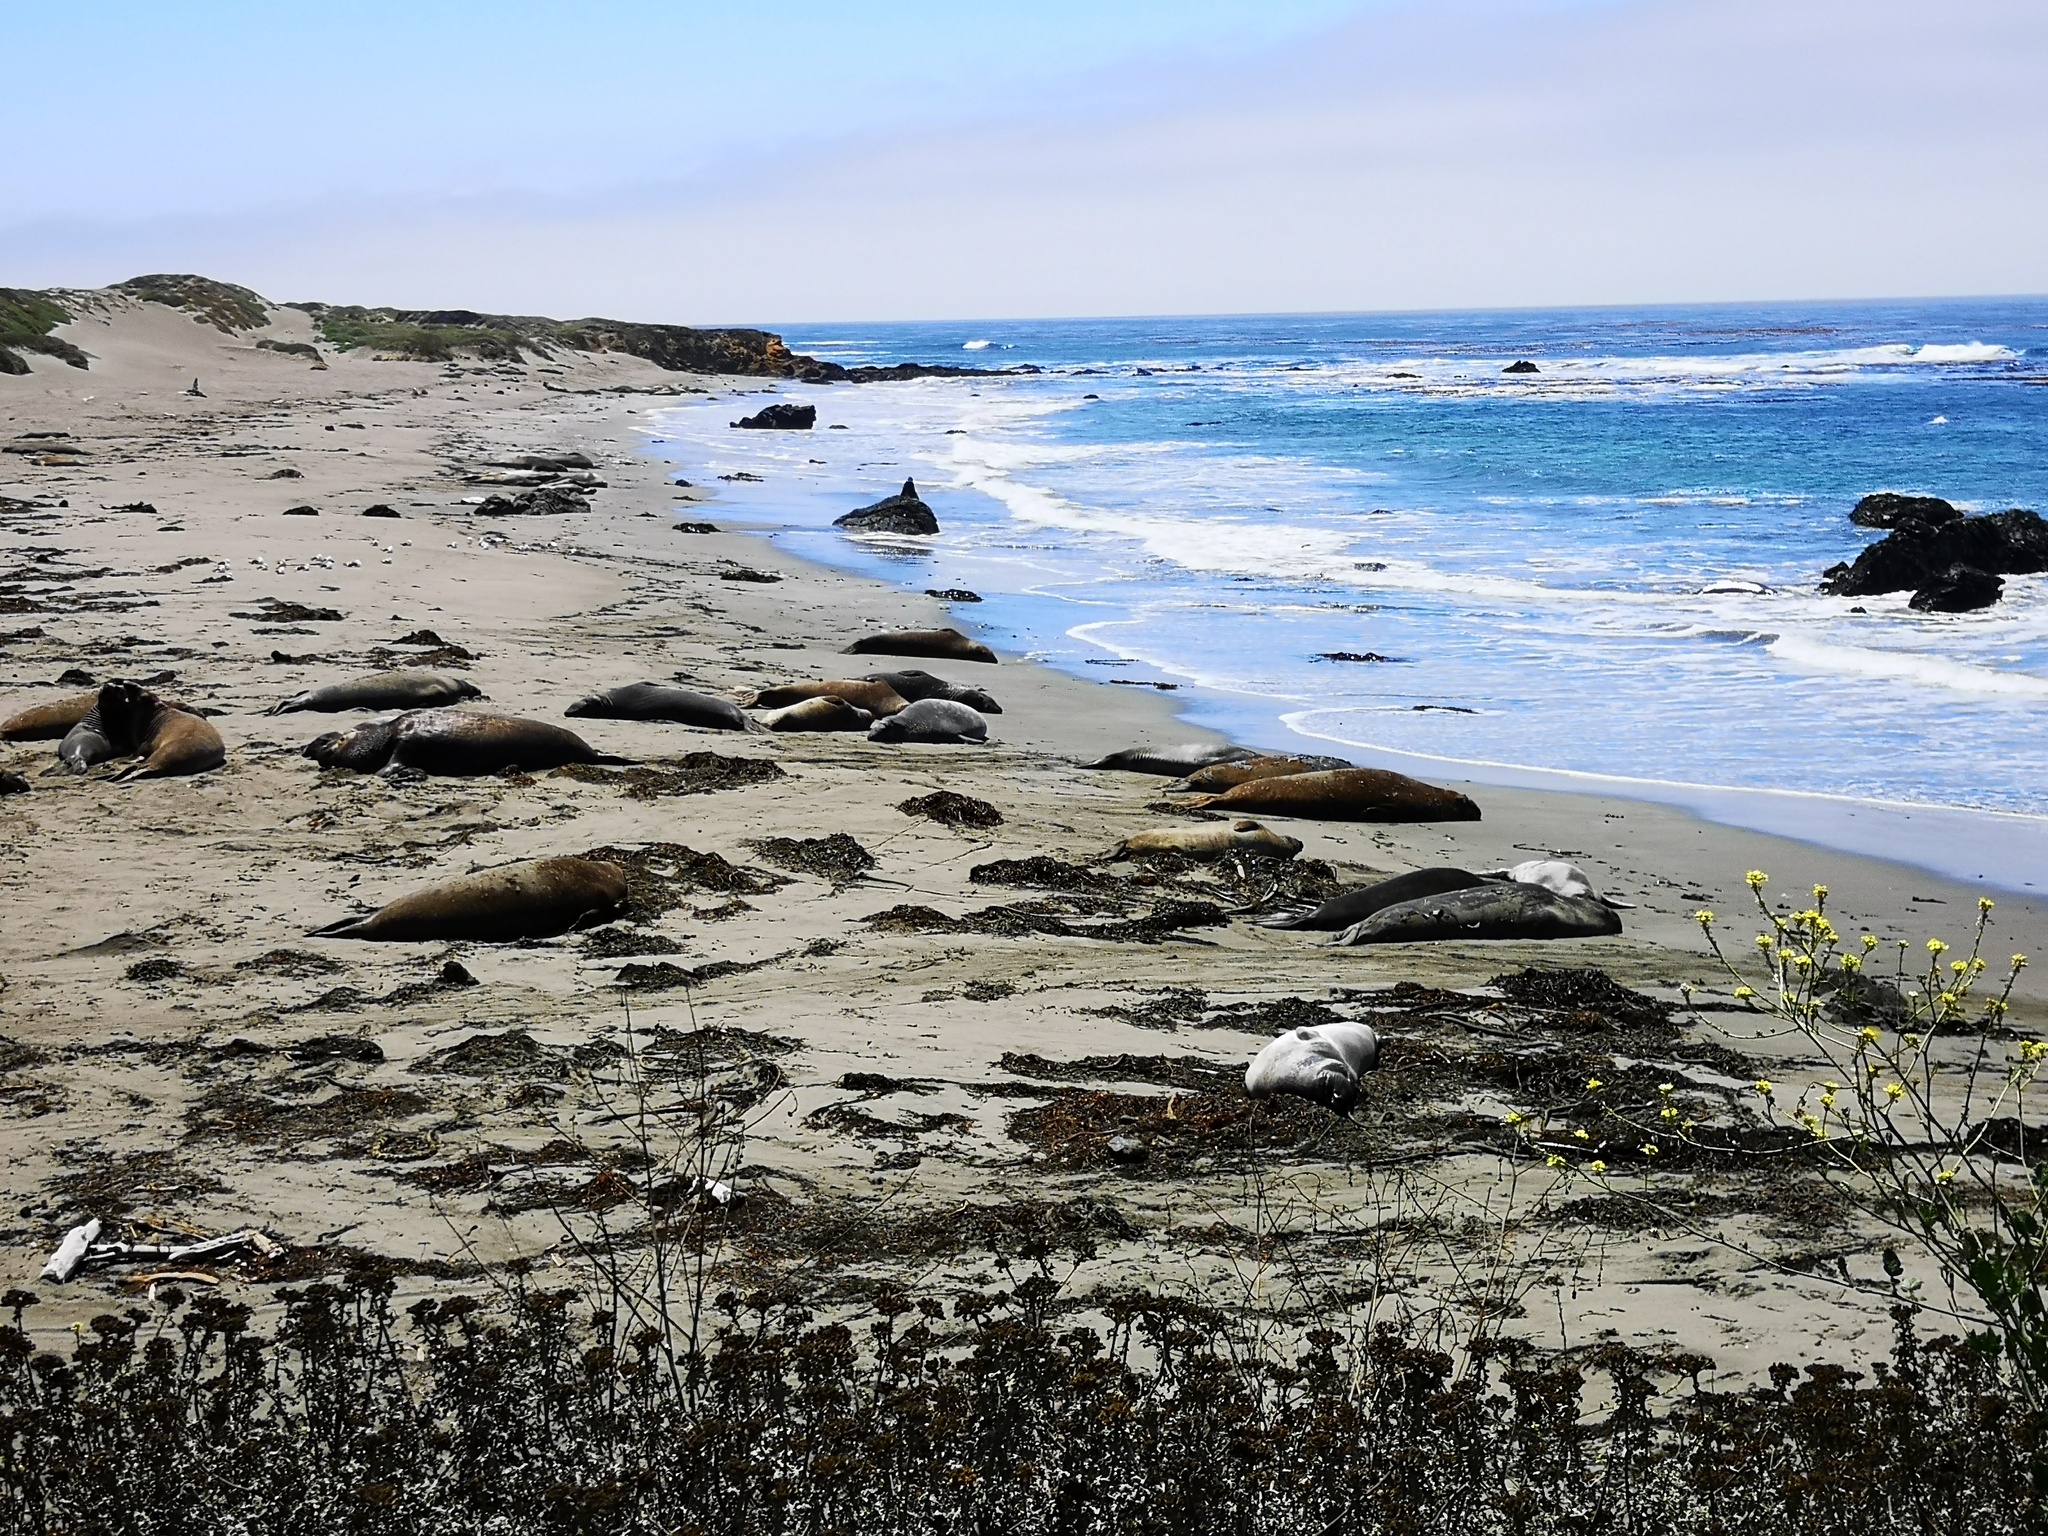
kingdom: Animalia
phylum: Chordata
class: Mammalia
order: Carnivora
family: Phocidae
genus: Mirounga
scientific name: Mirounga angustirostris
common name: Northern elephant seal
